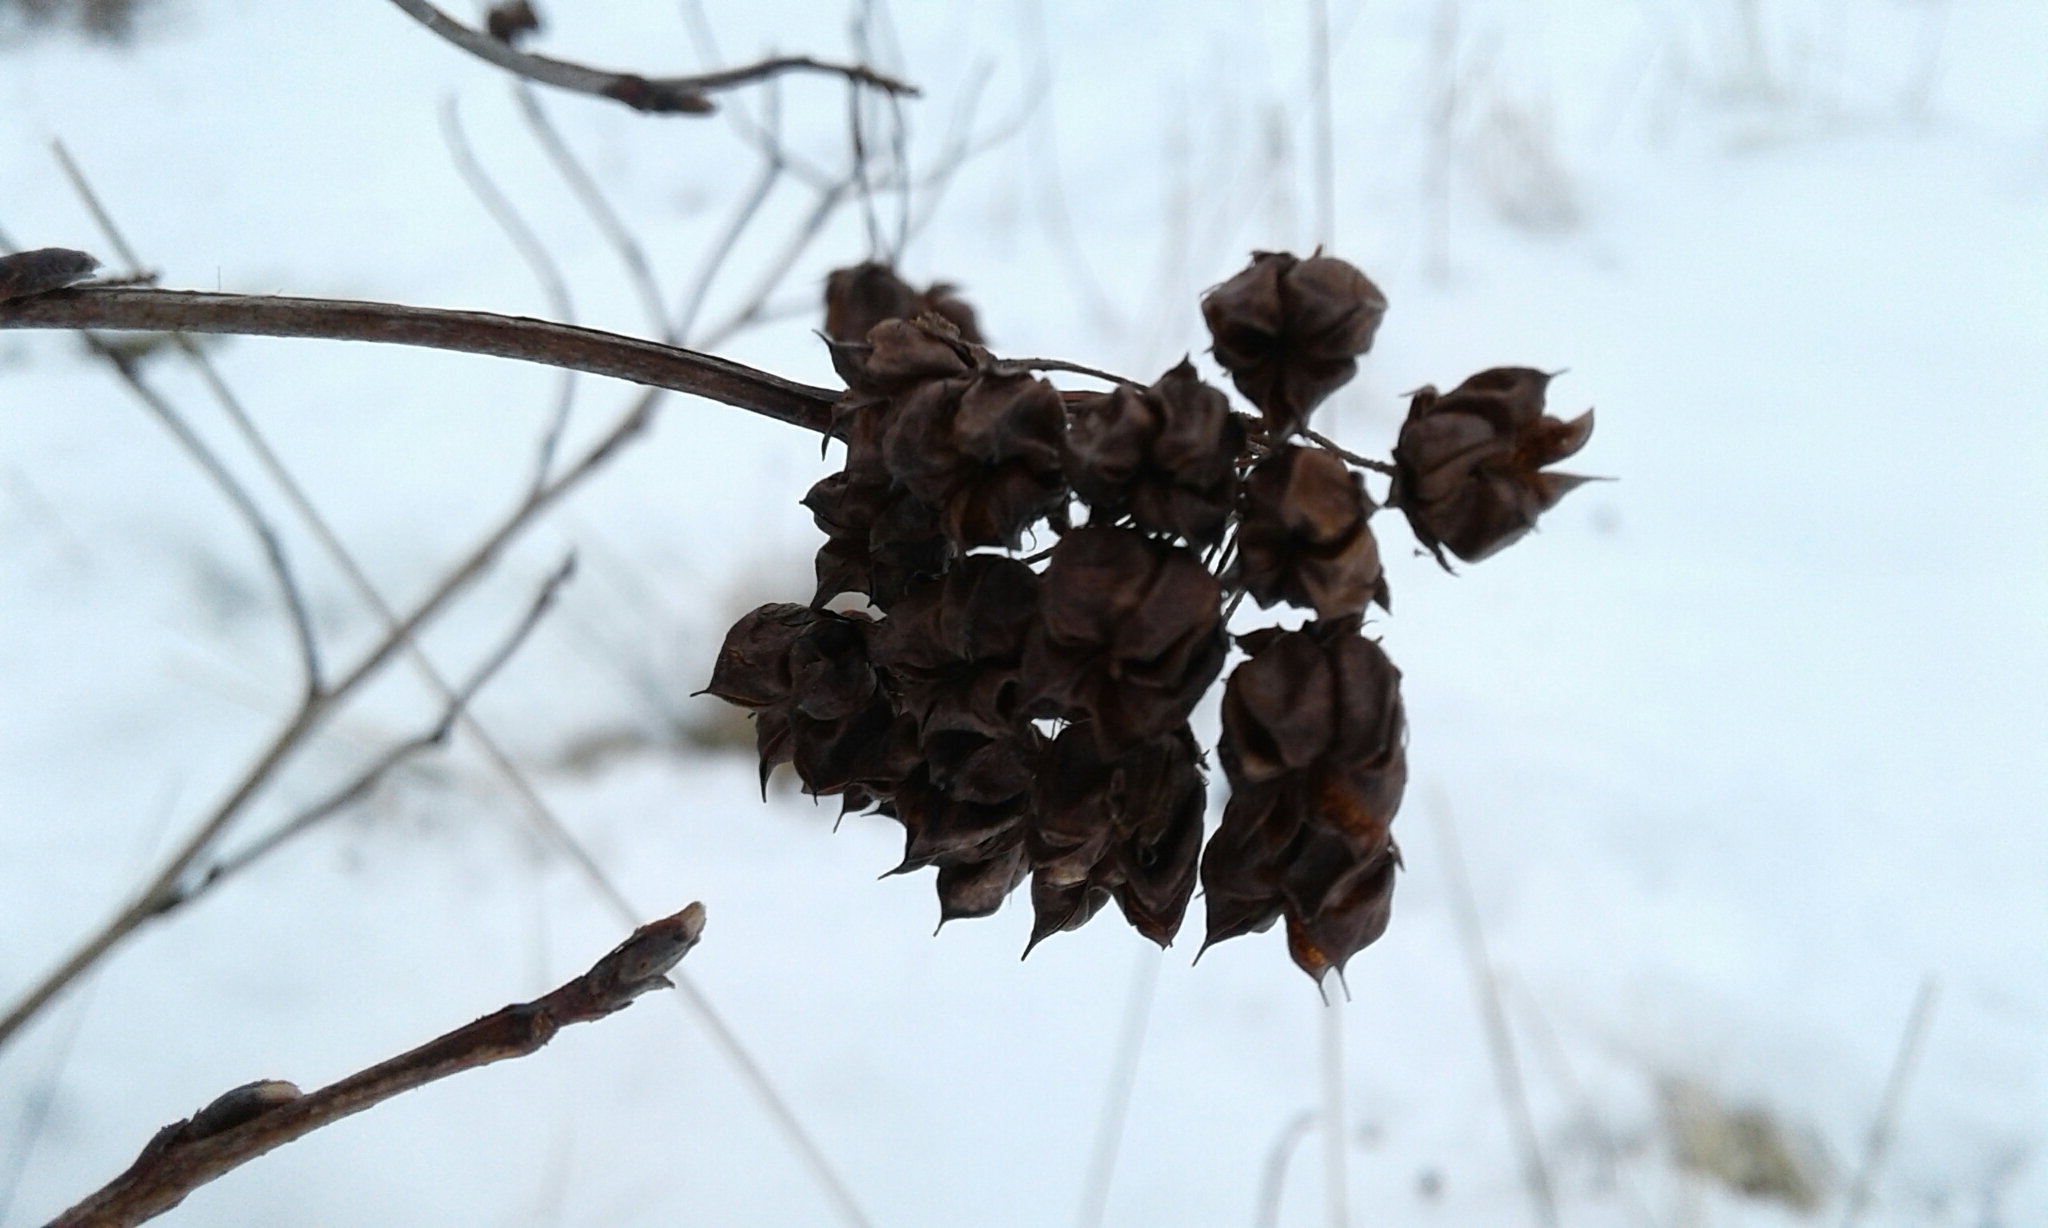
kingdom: Plantae
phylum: Tracheophyta
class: Magnoliopsida
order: Rosales
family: Rosaceae
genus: Physocarpus
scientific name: Physocarpus opulifolius
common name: Ninebark
